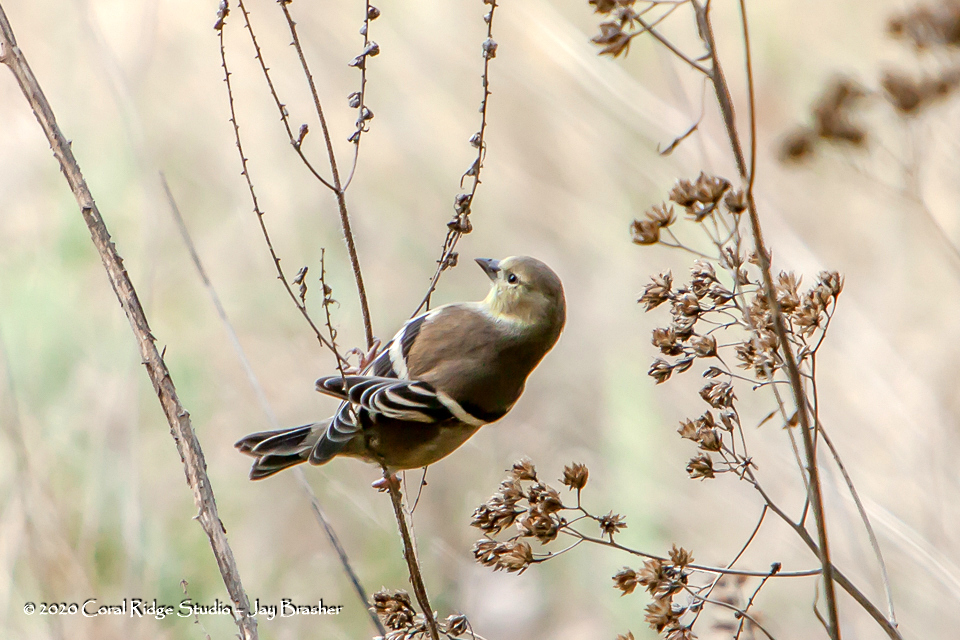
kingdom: Animalia
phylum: Chordata
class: Aves
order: Passeriformes
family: Fringillidae
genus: Spinus
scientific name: Spinus tristis
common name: American goldfinch
